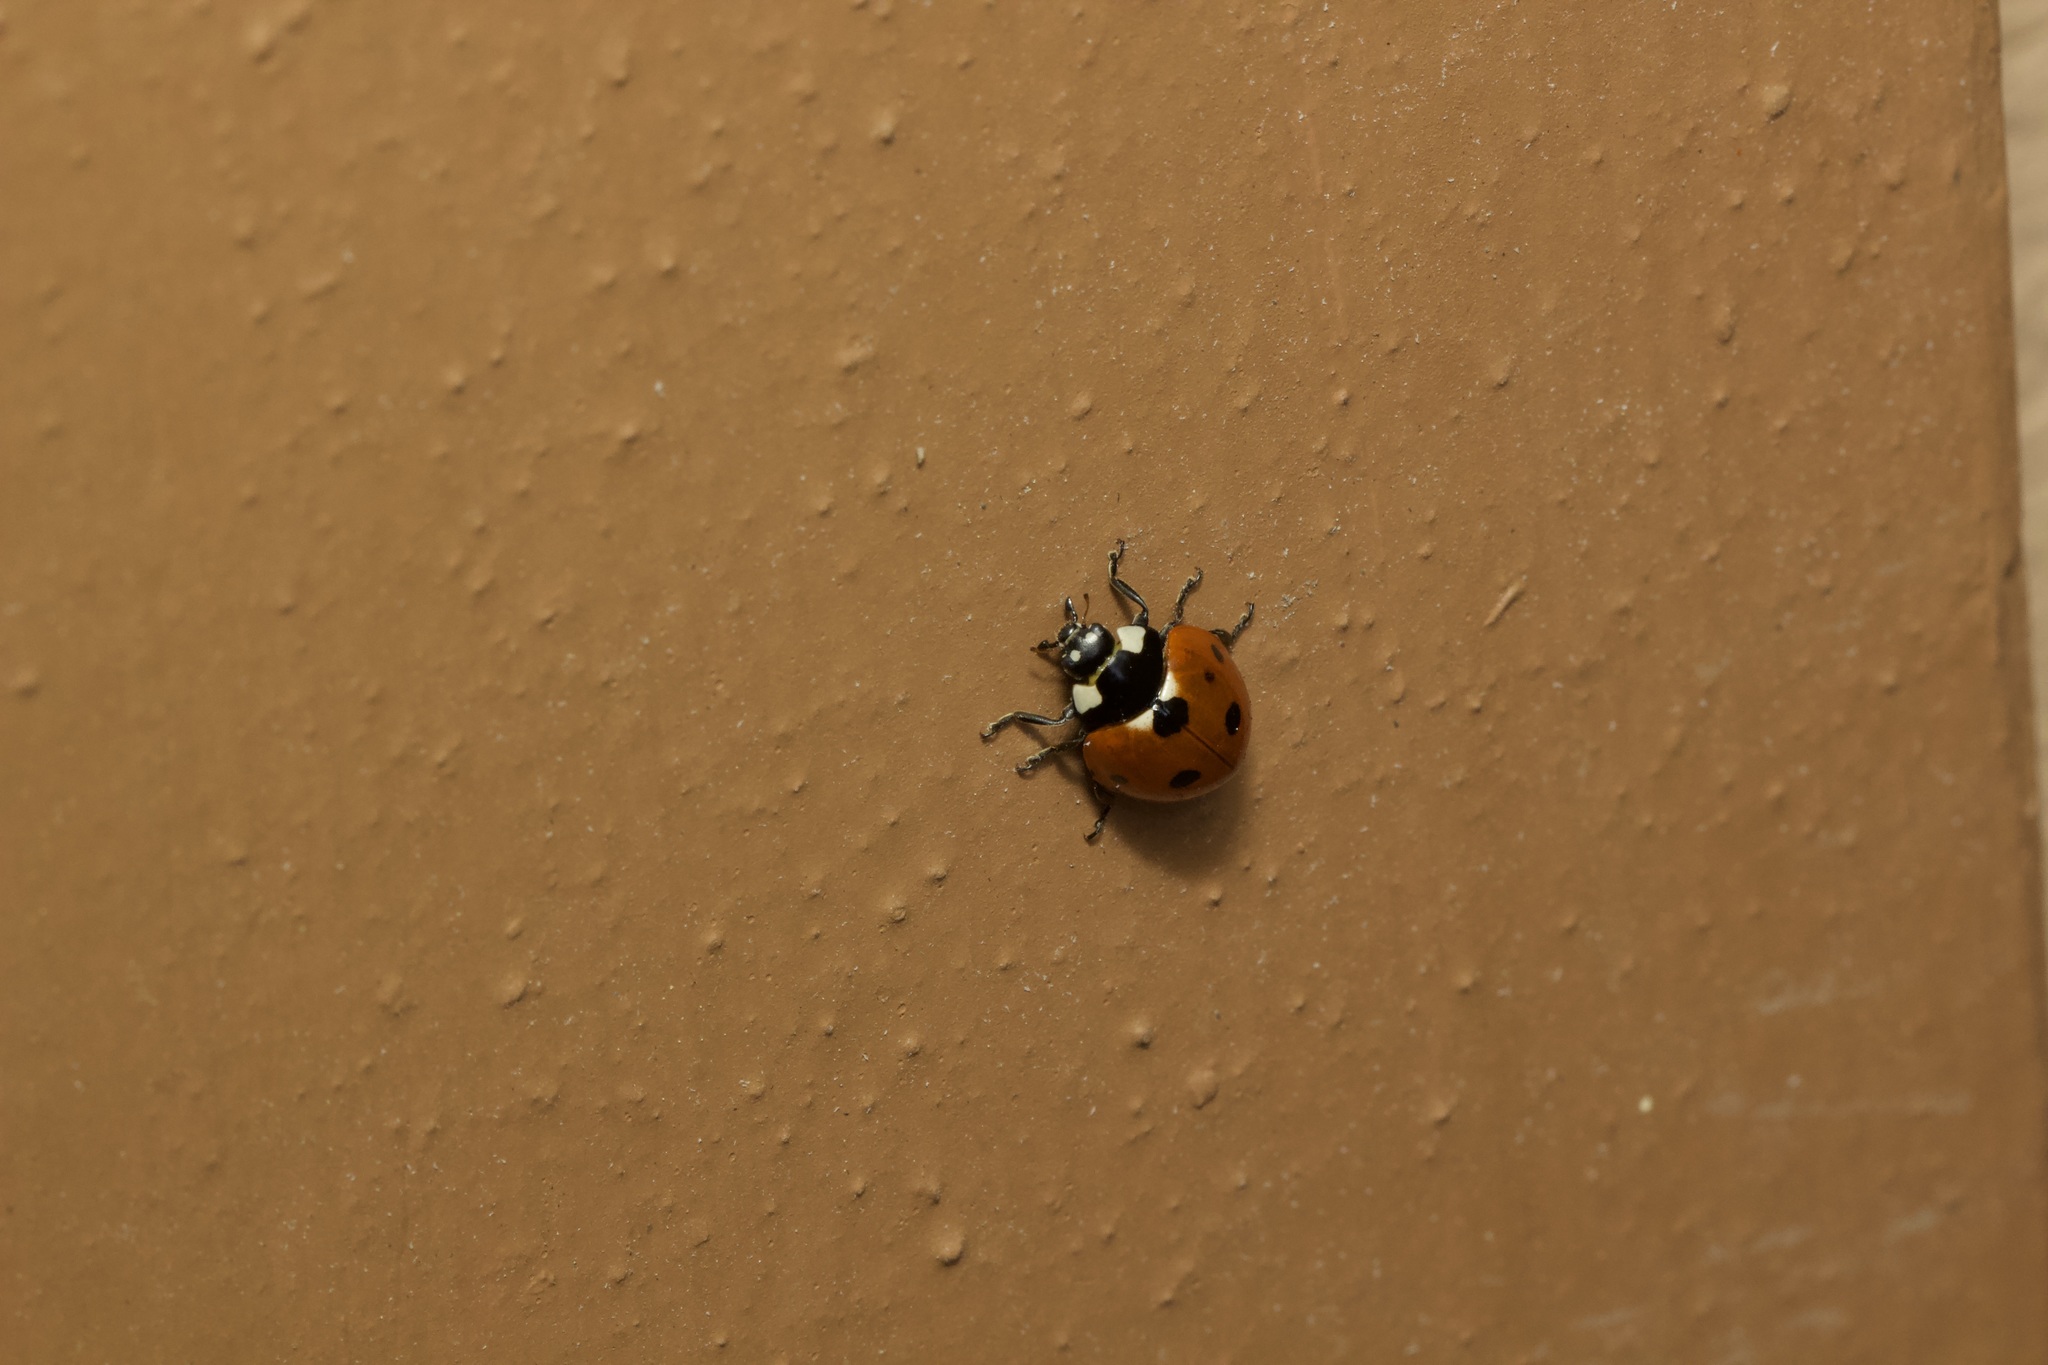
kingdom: Animalia
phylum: Arthropoda
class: Insecta
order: Coleoptera
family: Coccinellidae
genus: Coccinella
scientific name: Coccinella septempunctata
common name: Sevenspotted lady beetle
